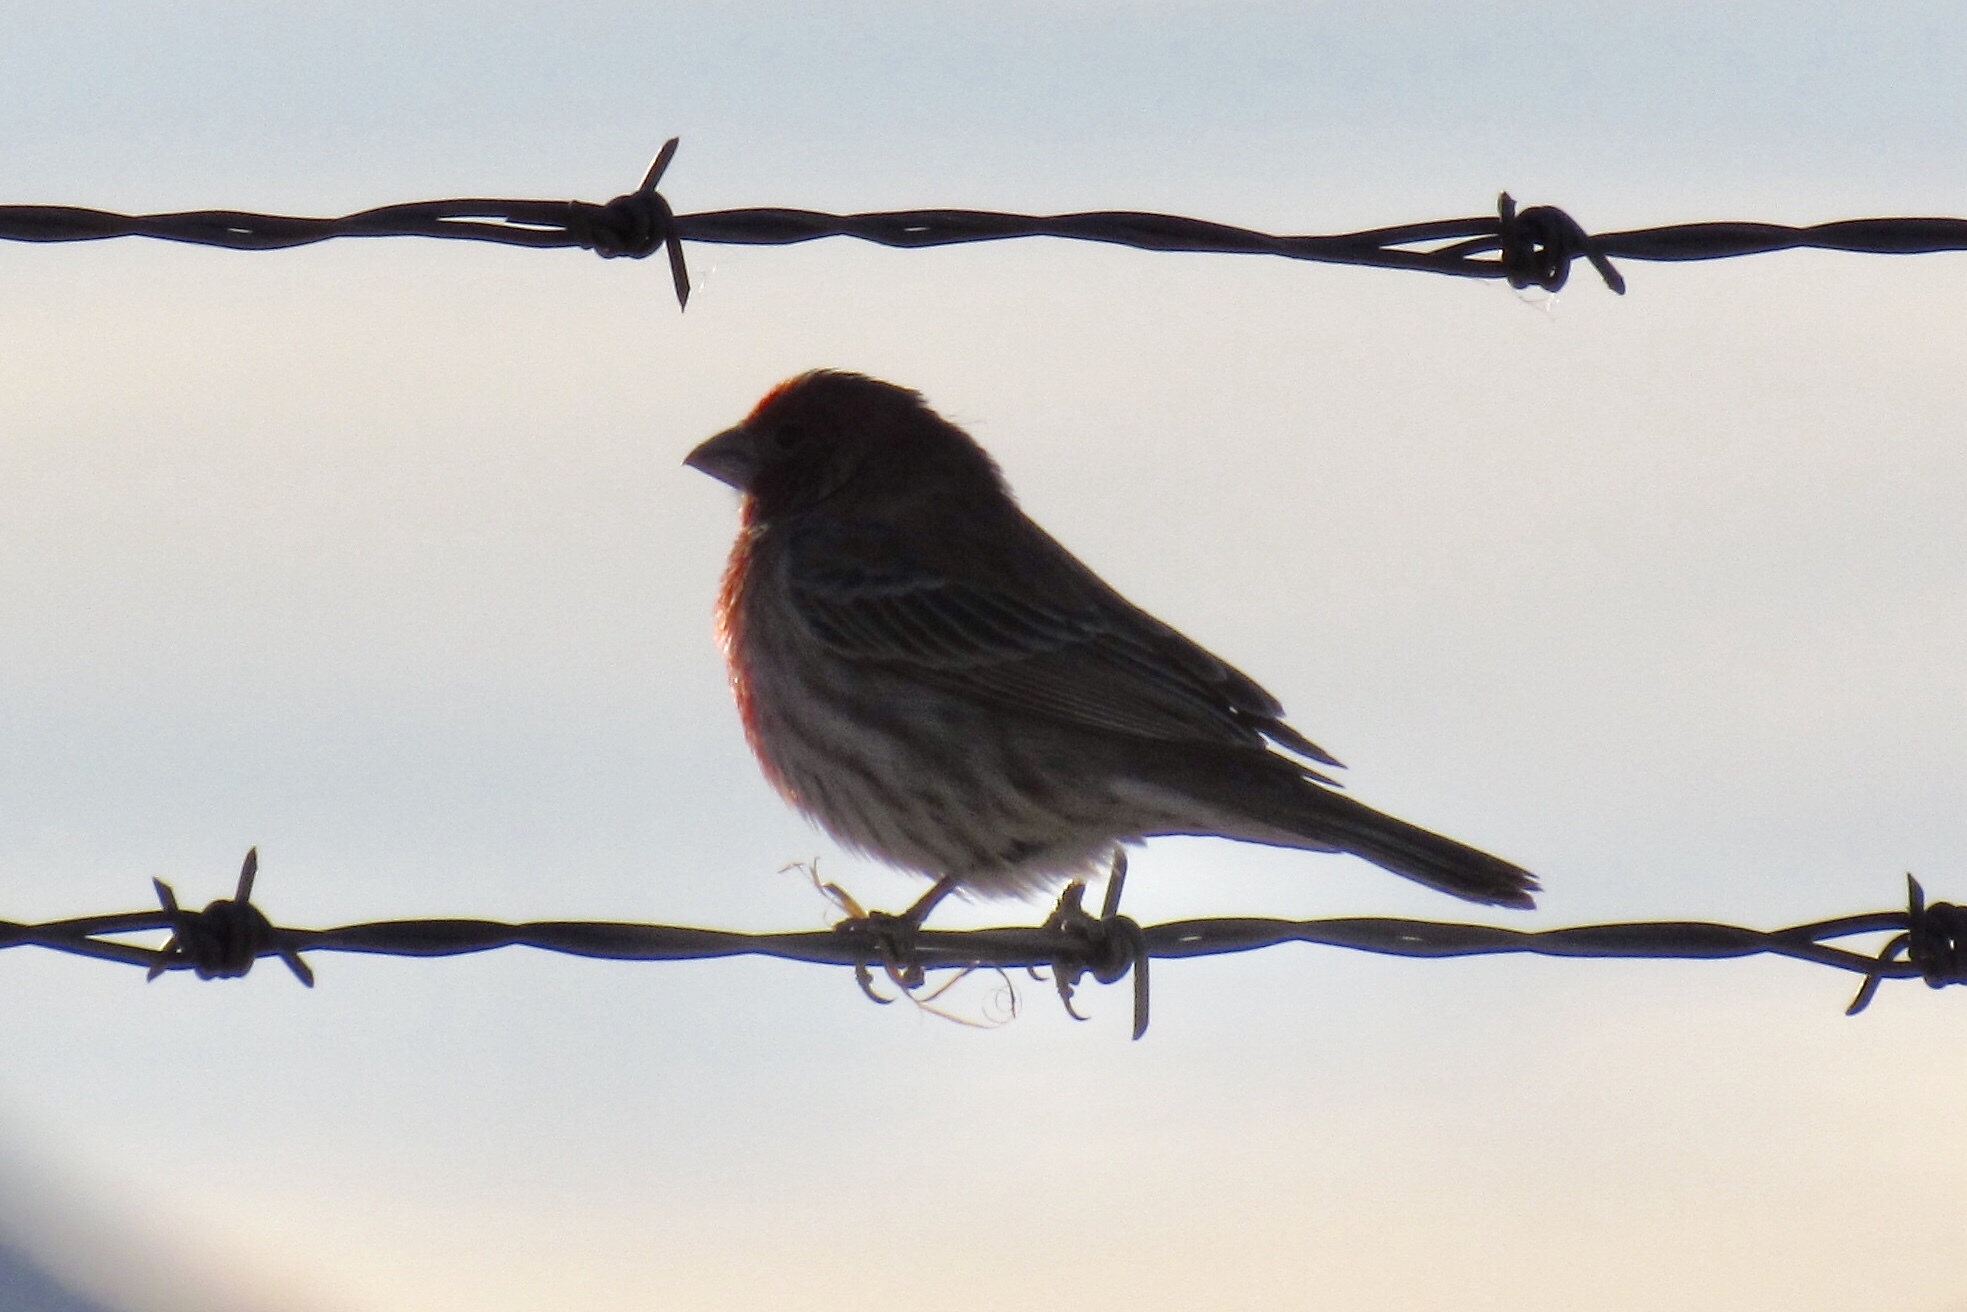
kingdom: Animalia
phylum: Chordata
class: Aves
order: Passeriformes
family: Fringillidae
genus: Haemorhous
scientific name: Haemorhous mexicanus
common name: House finch
